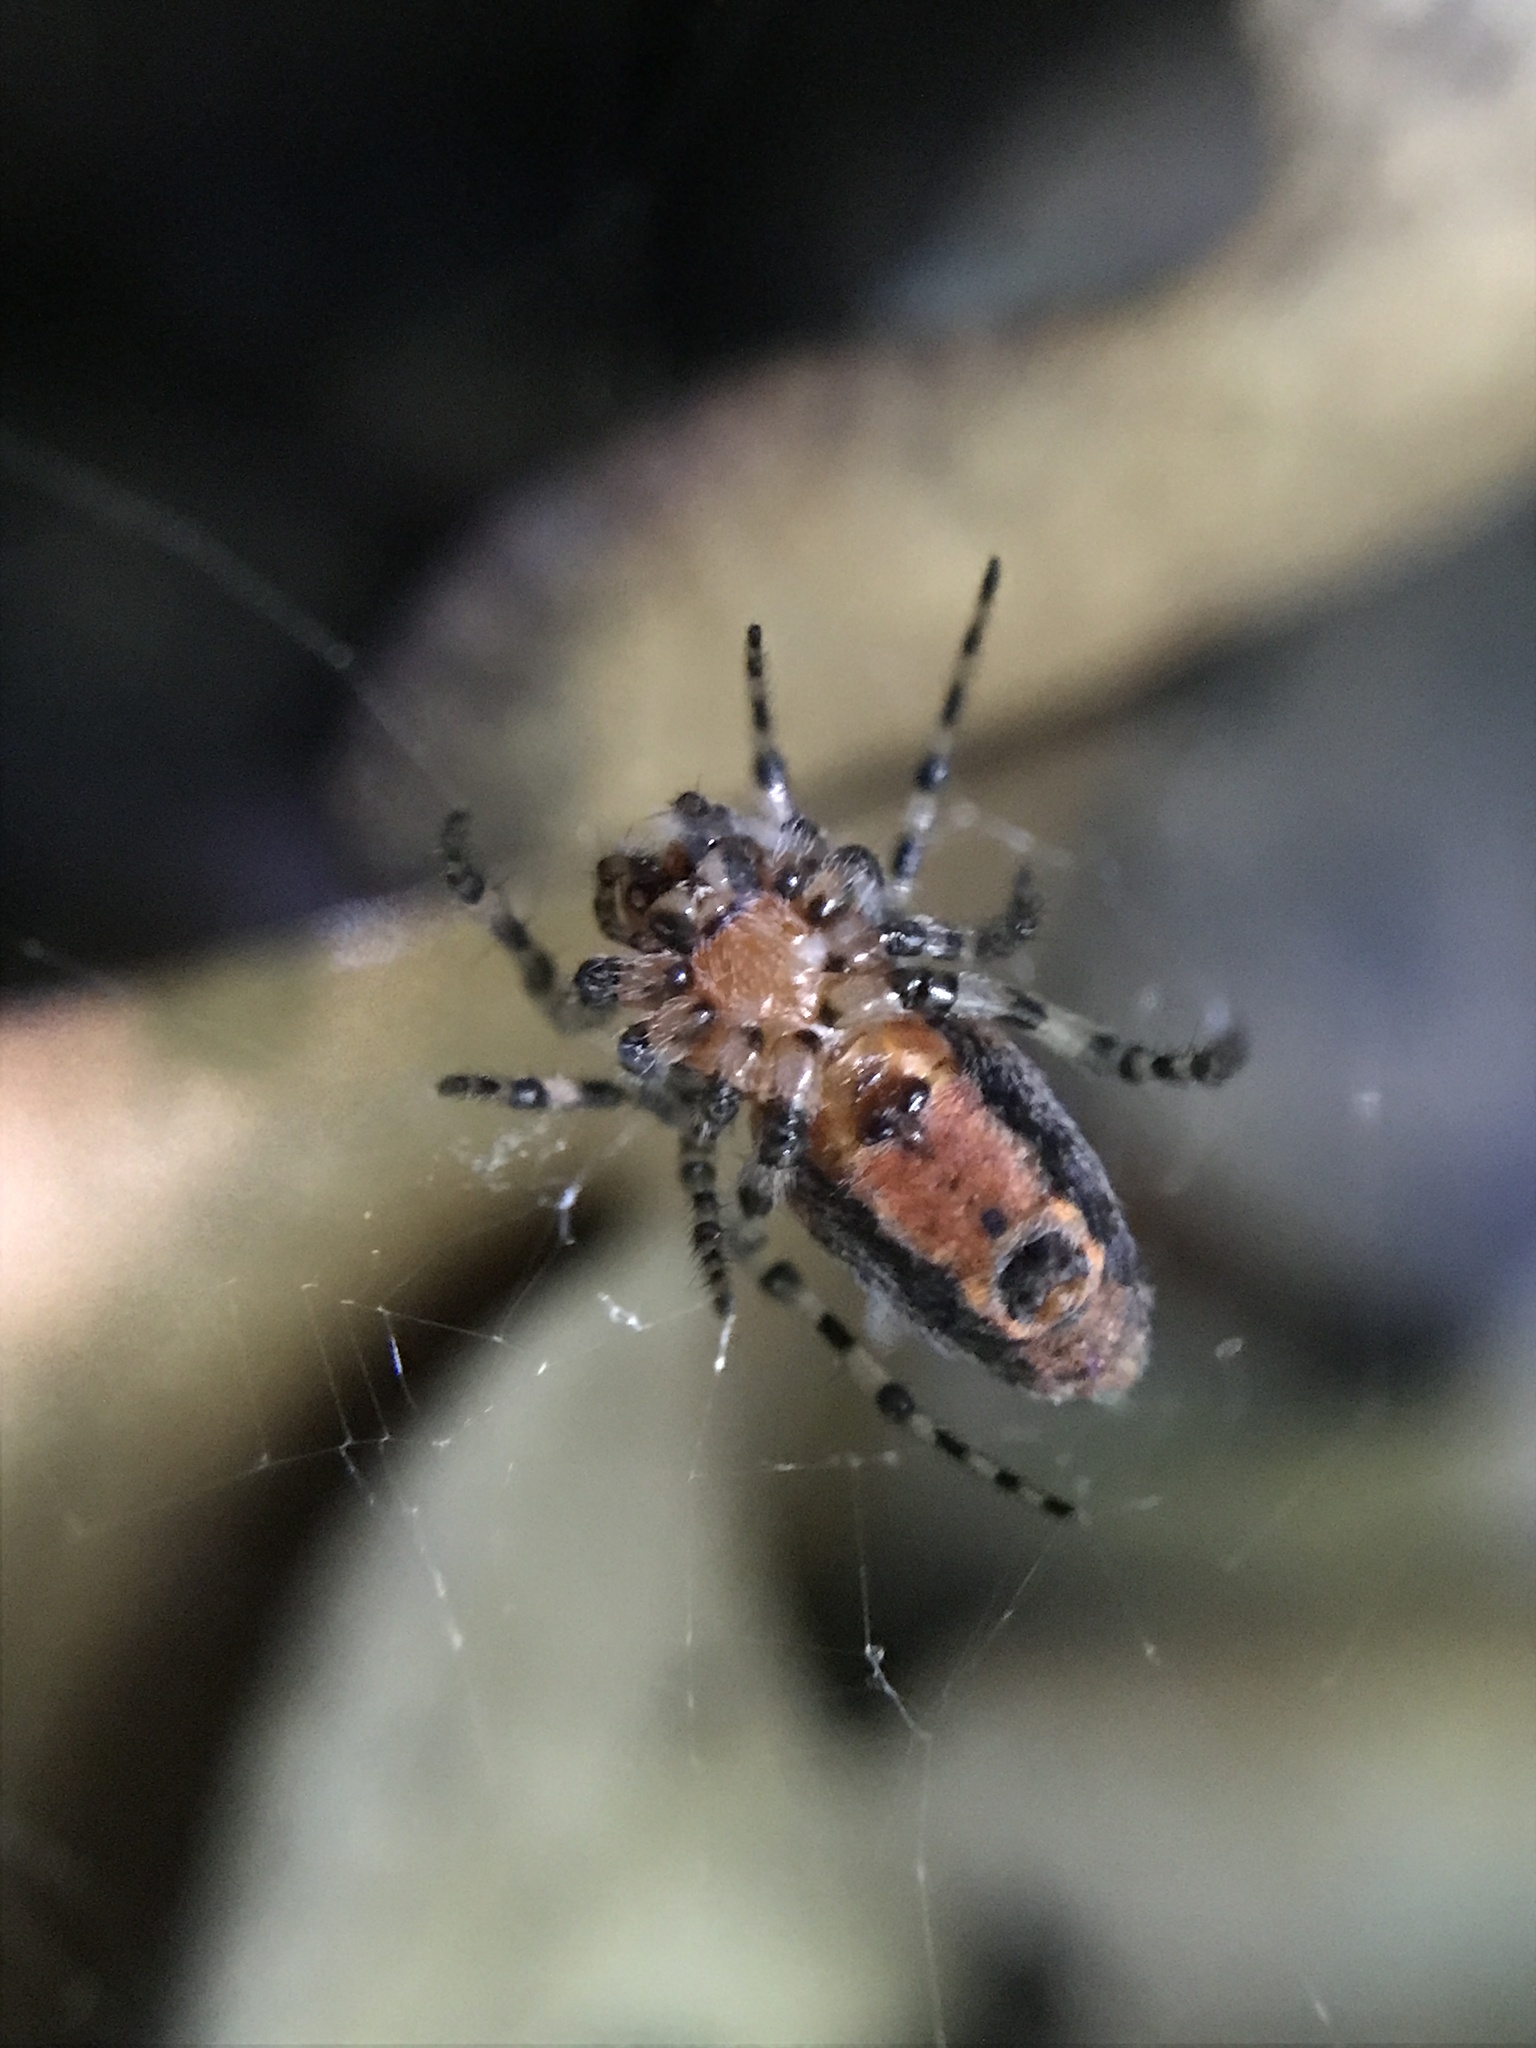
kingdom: Animalia
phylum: Arthropoda
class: Arachnida
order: Araneae
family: Araneidae
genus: Alpaida
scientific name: Alpaida gallardoi
